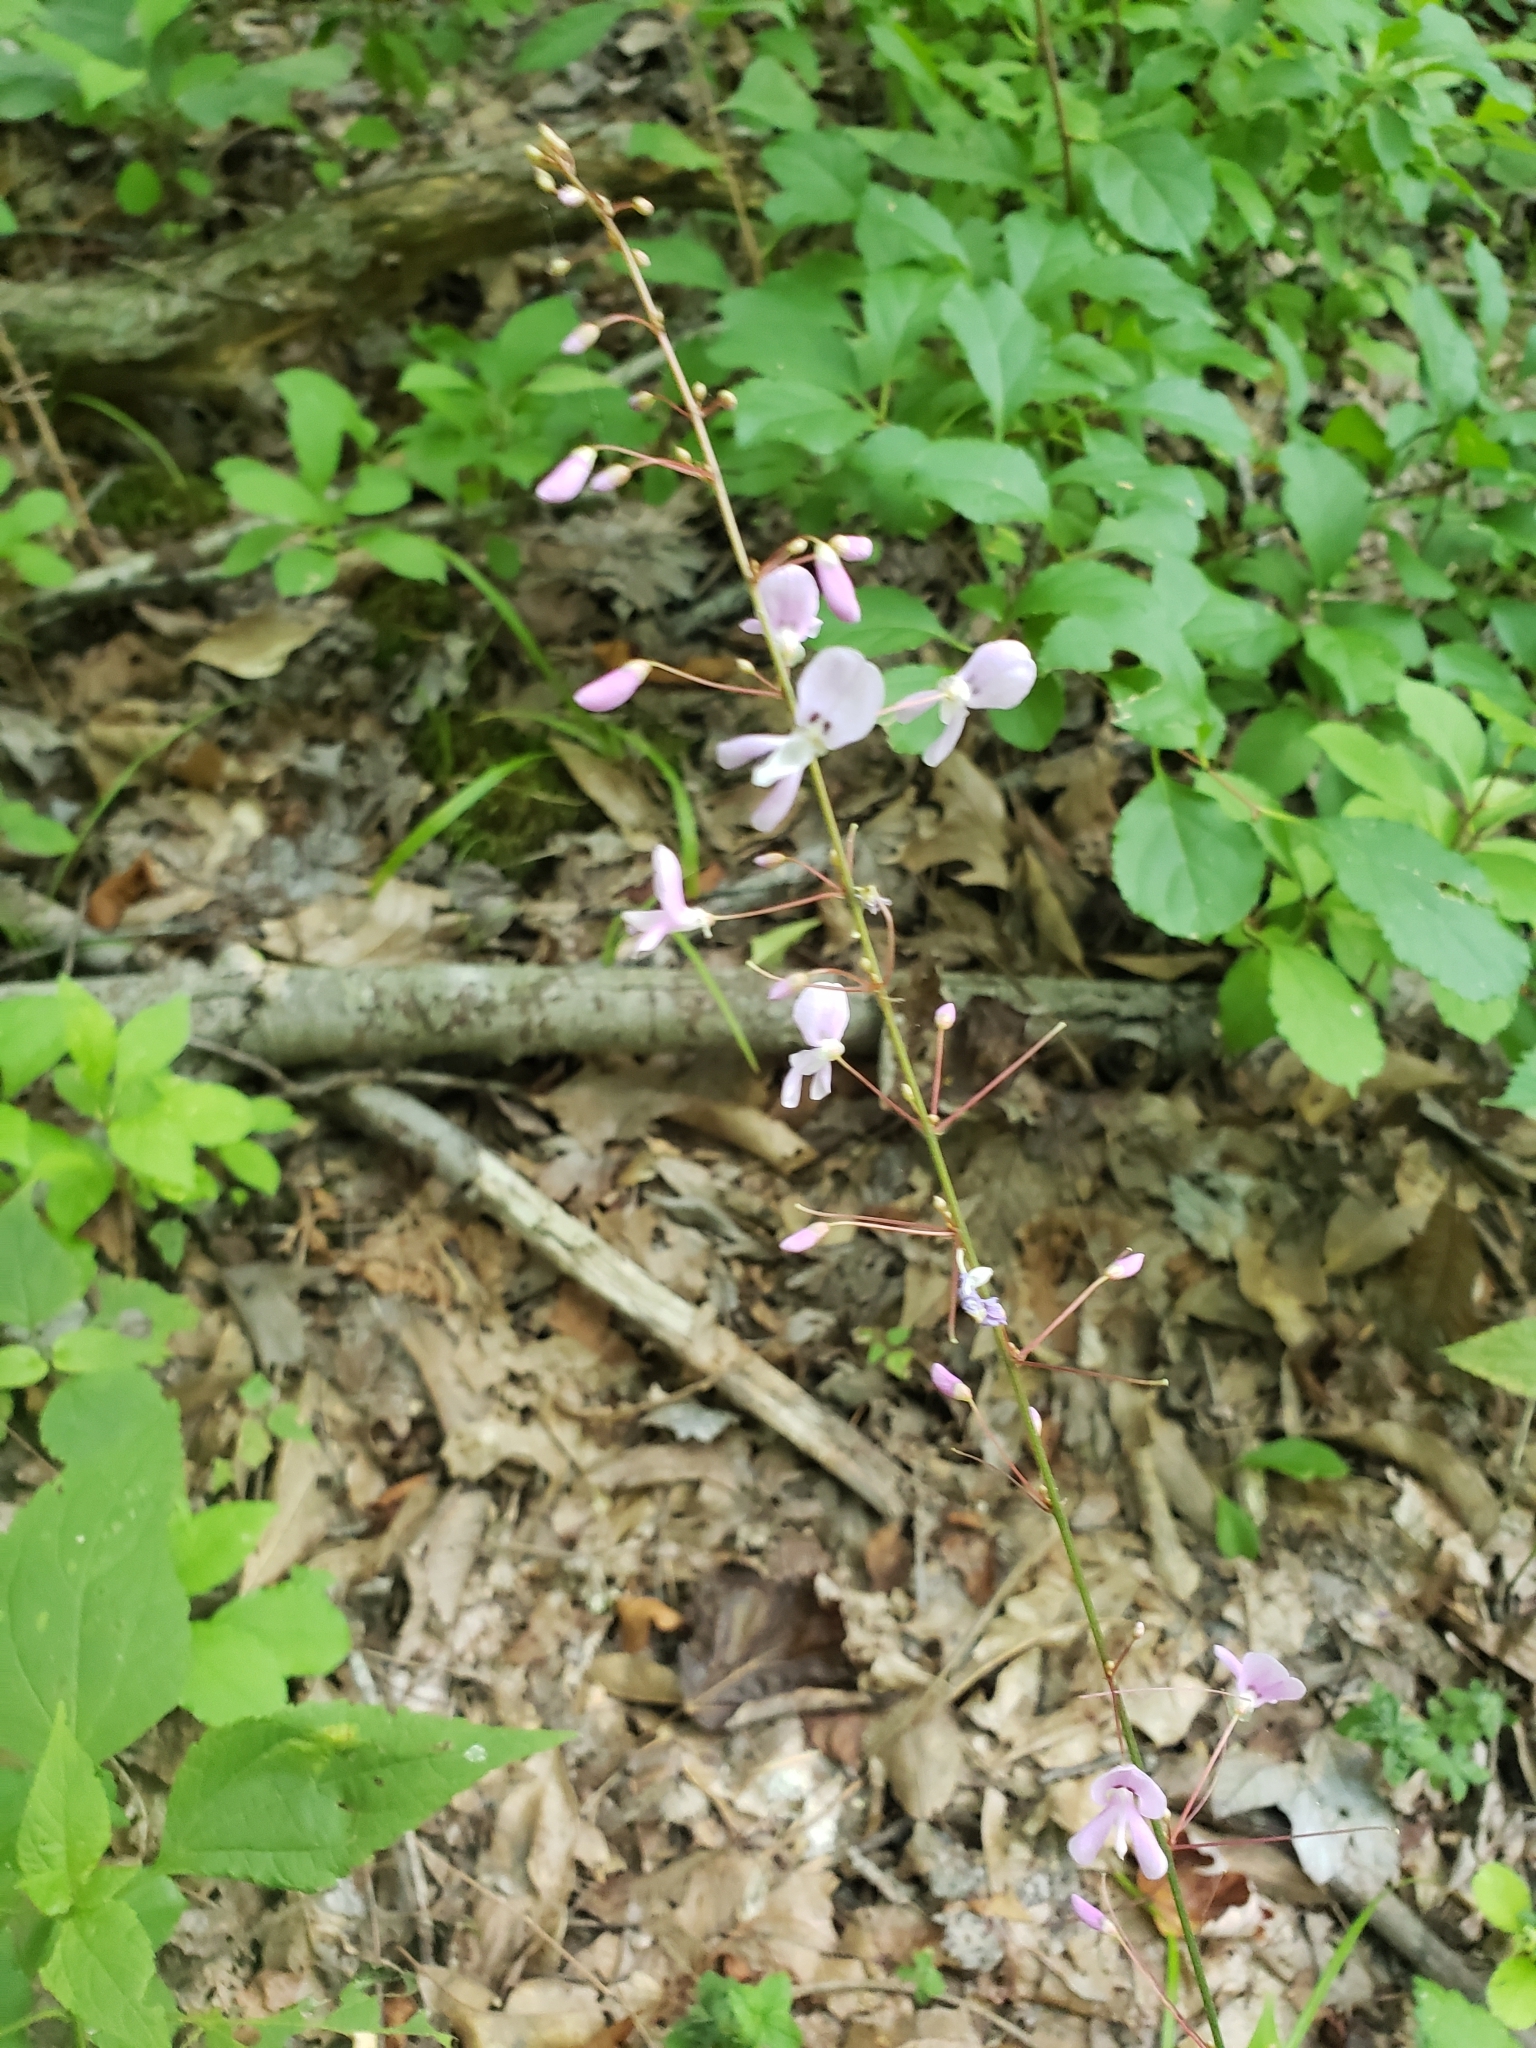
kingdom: Plantae
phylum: Tracheophyta
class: Magnoliopsida
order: Fabales
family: Fabaceae
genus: Hylodesmum
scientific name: Hylodesmum nudiflorum
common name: Bare-stemmed tick-trefoil
